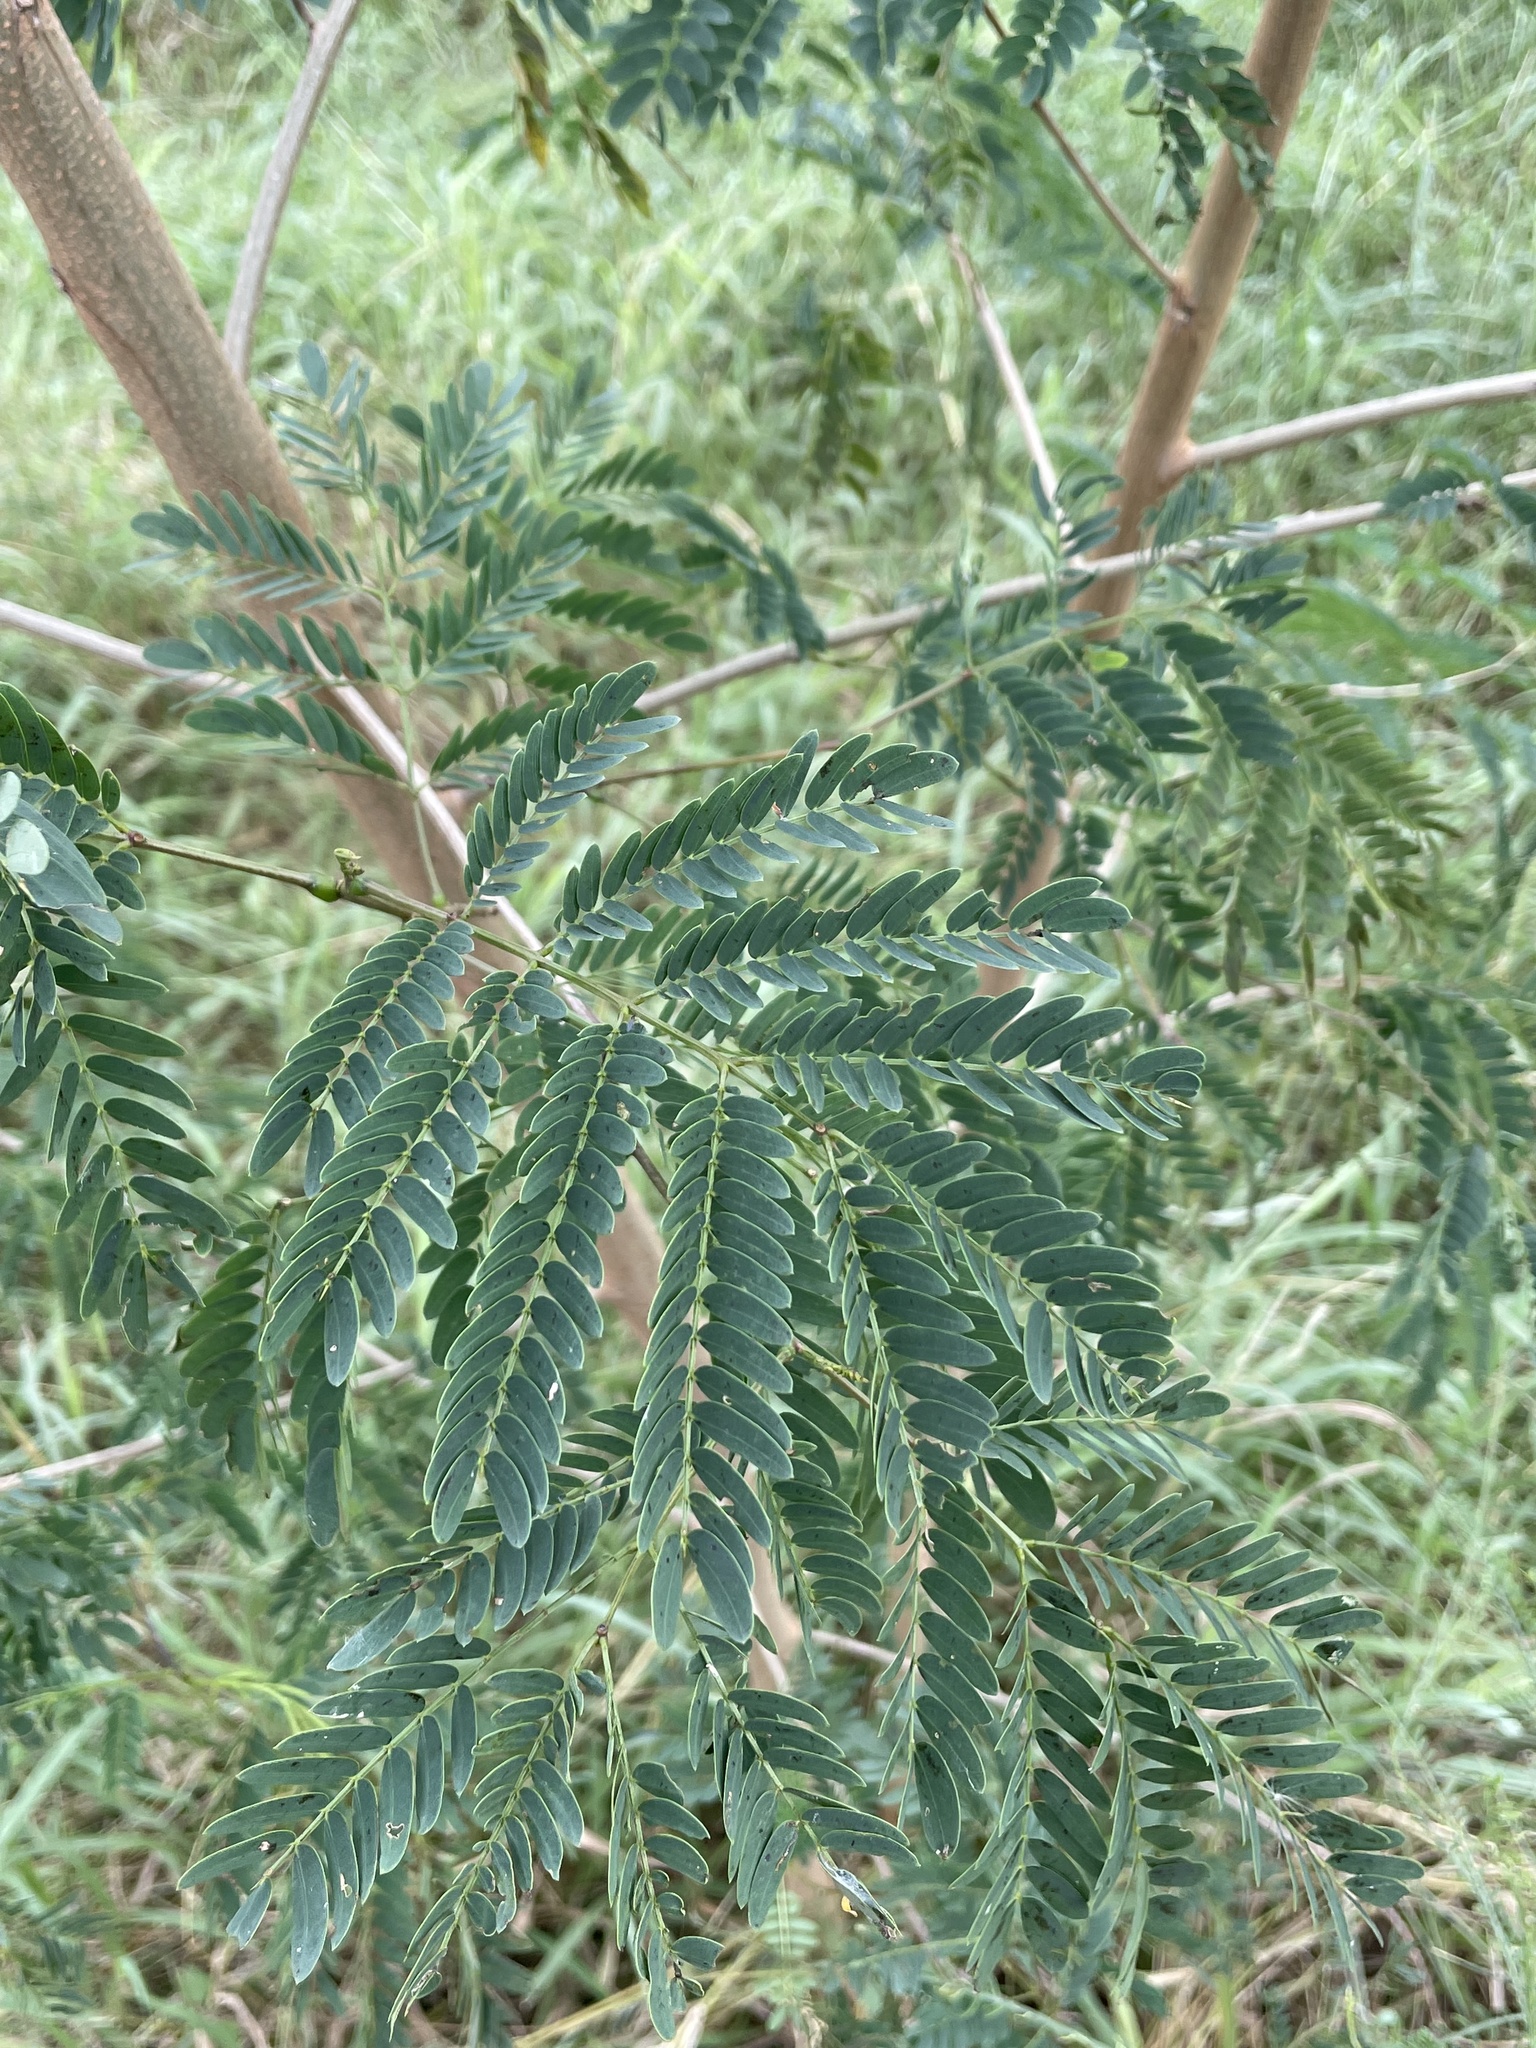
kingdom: Plantae
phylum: Tracheophyta
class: Magnoliopsida
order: Fabales
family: Fabaceae
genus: Leucaena
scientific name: Leucaena leucocephala
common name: White leadtree
